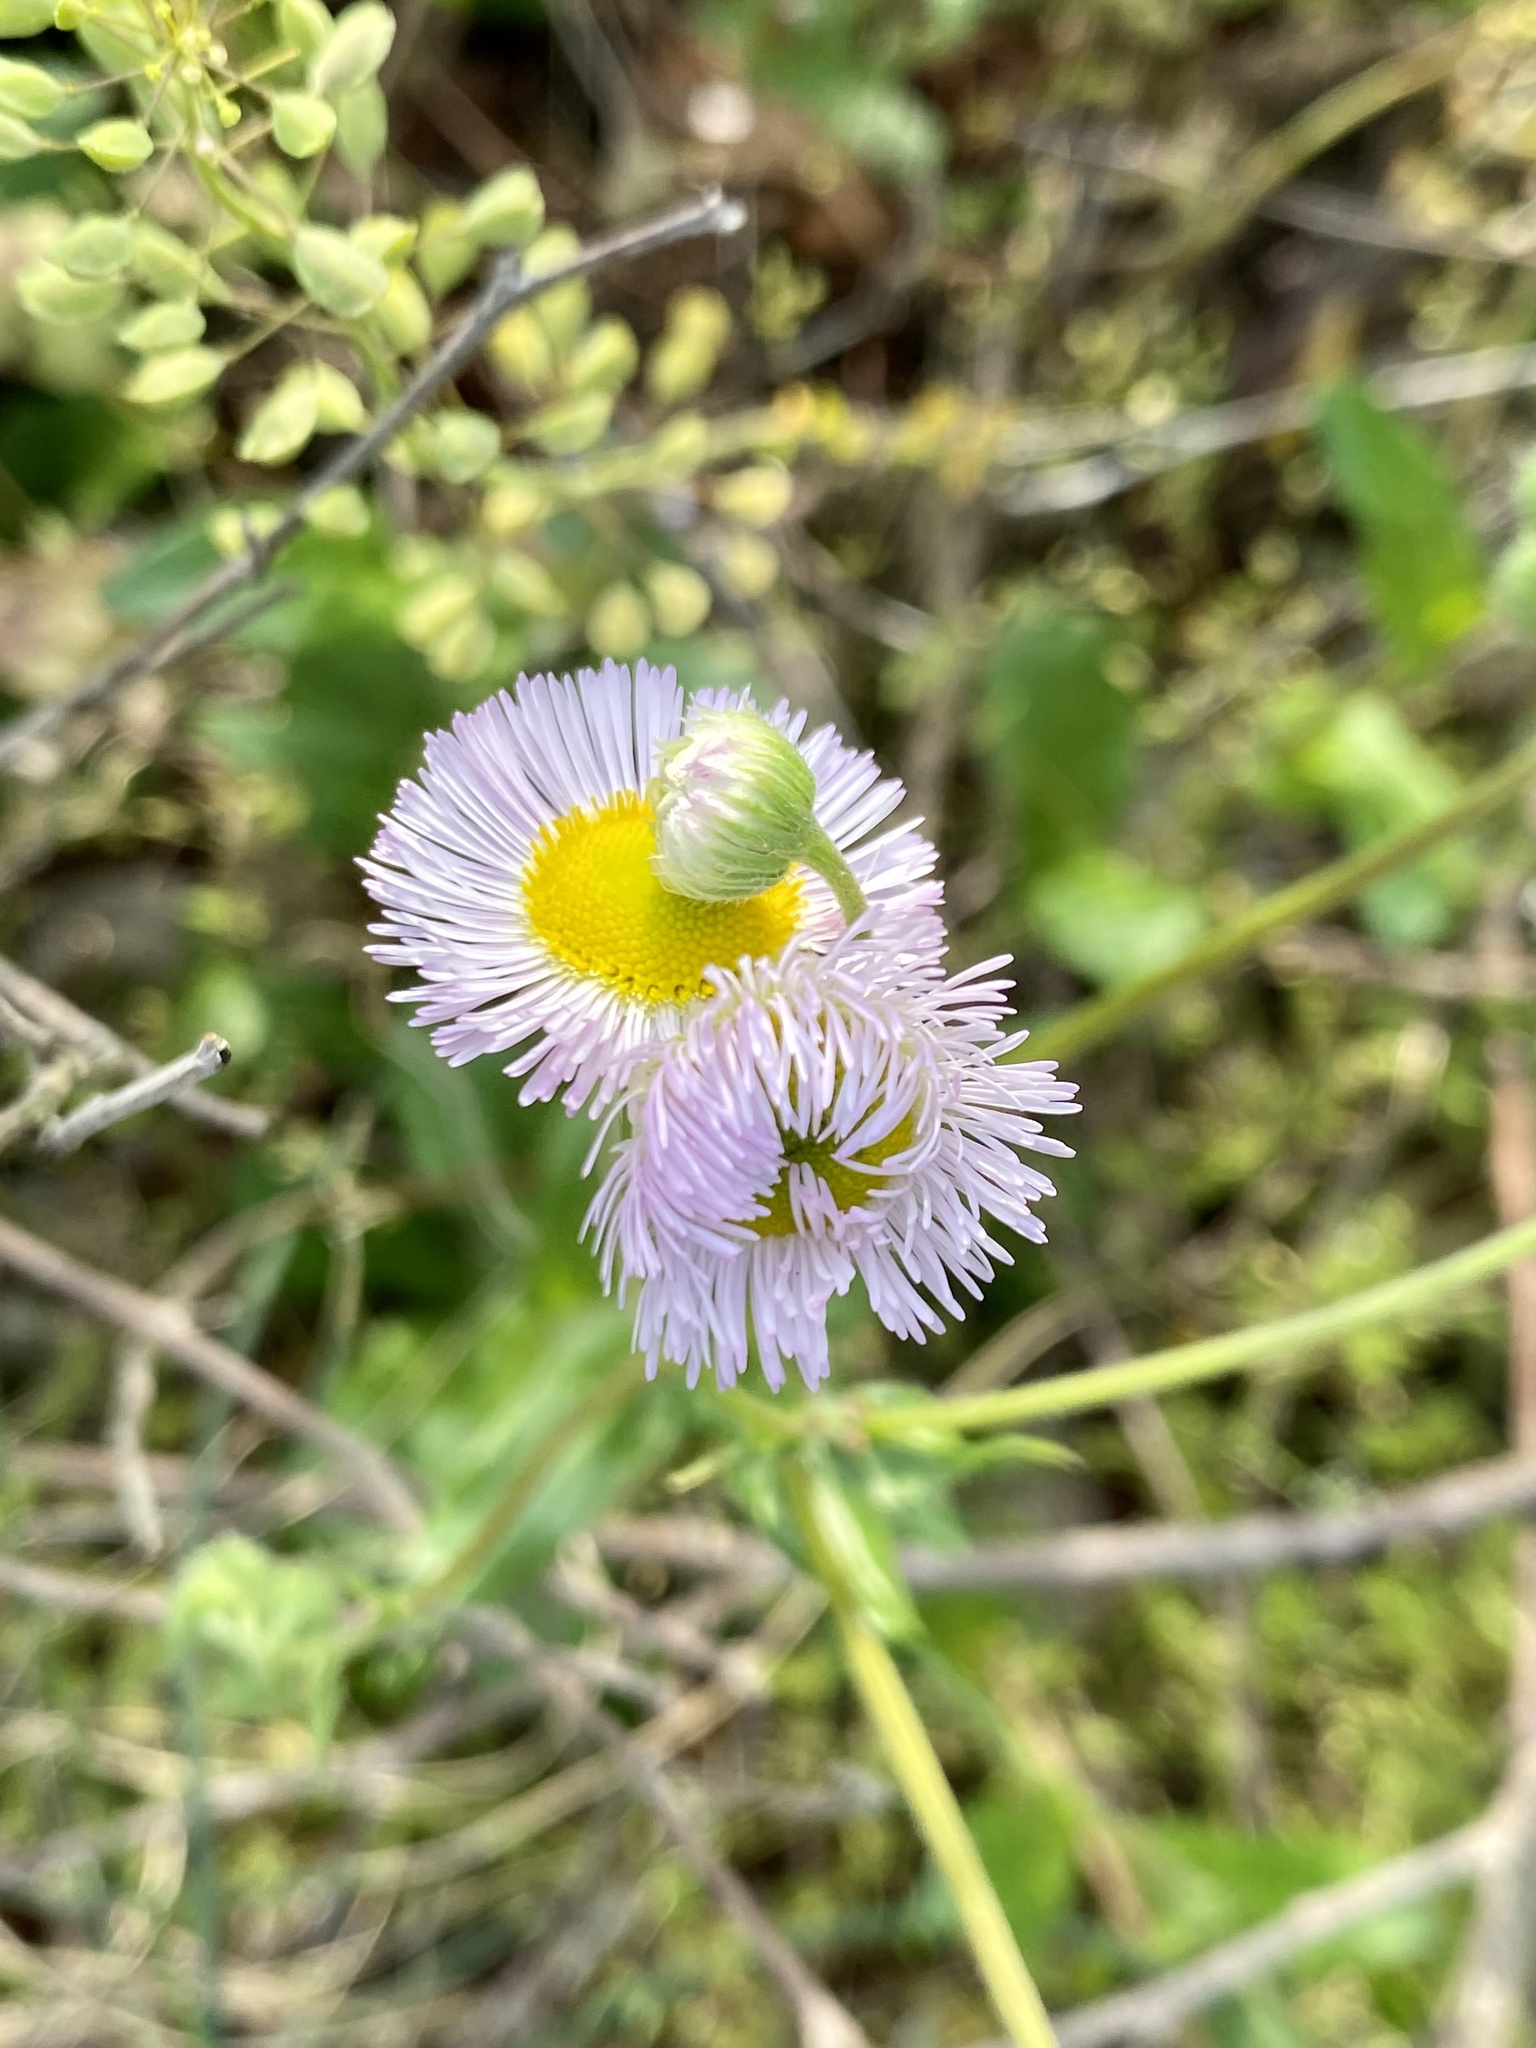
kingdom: Plantae
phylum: Tracheophyta
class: Magnoliopsida
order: Asterales
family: Asteraceae
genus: Erigeron
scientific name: Erigeron philadelphicus
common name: Robin's-plantain
